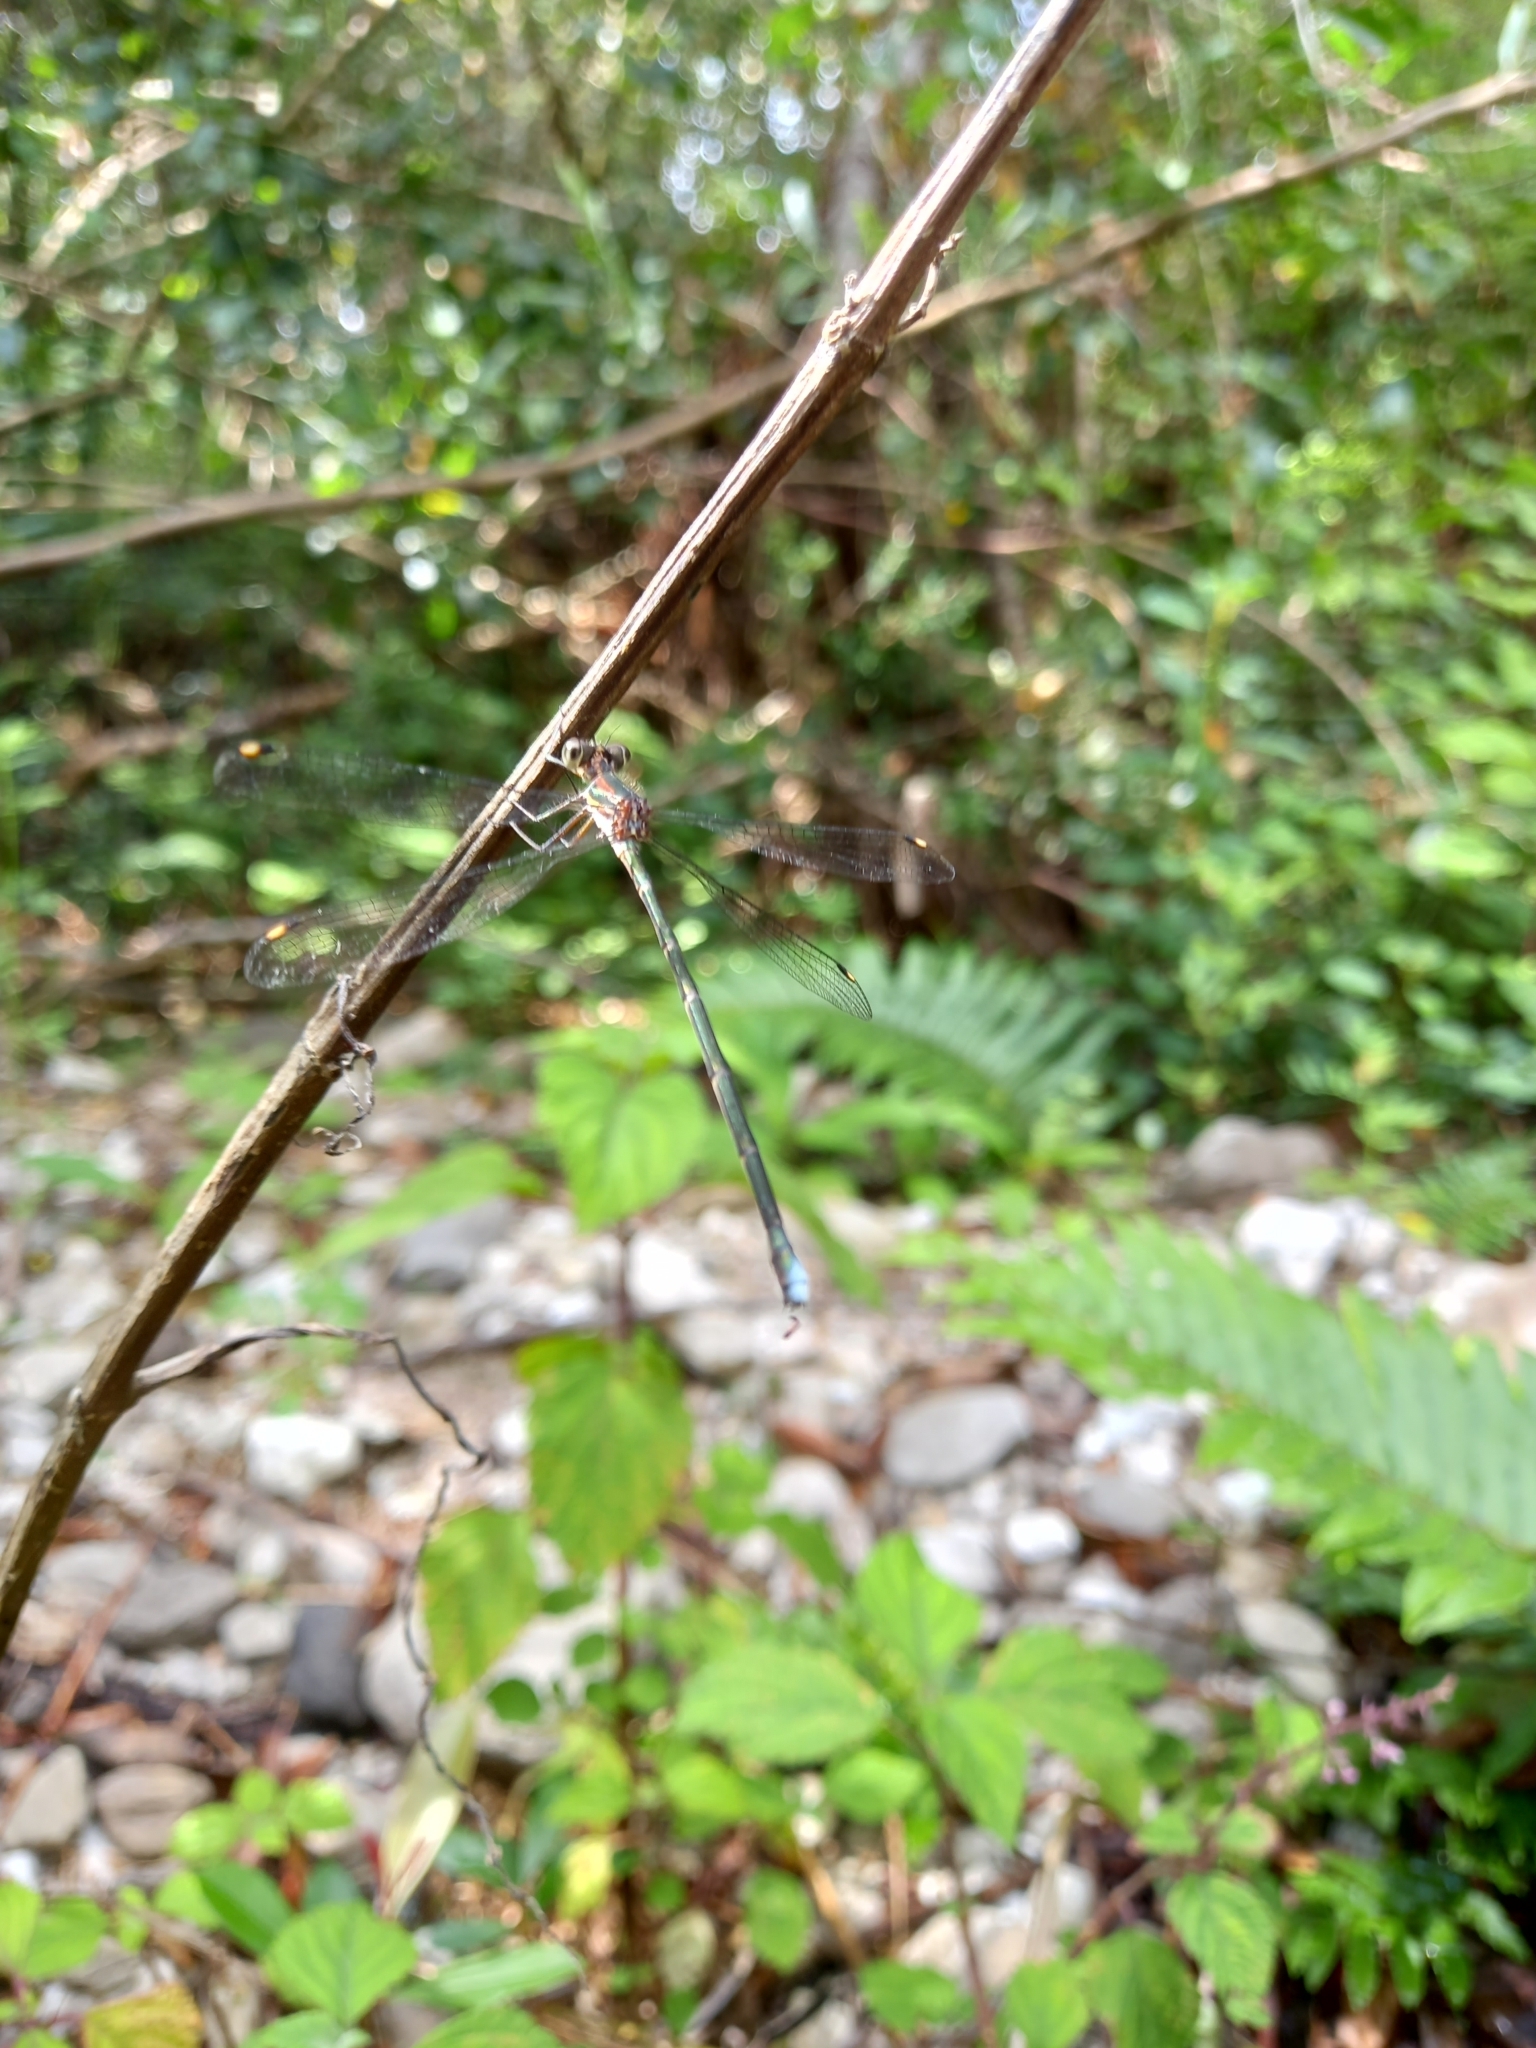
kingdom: Animalia
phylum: Arthropoda
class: Insecta
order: Odonata
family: Synlestidae
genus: Chlorolestes
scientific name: Chlorolestes tessellatus
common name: Forest malachite
